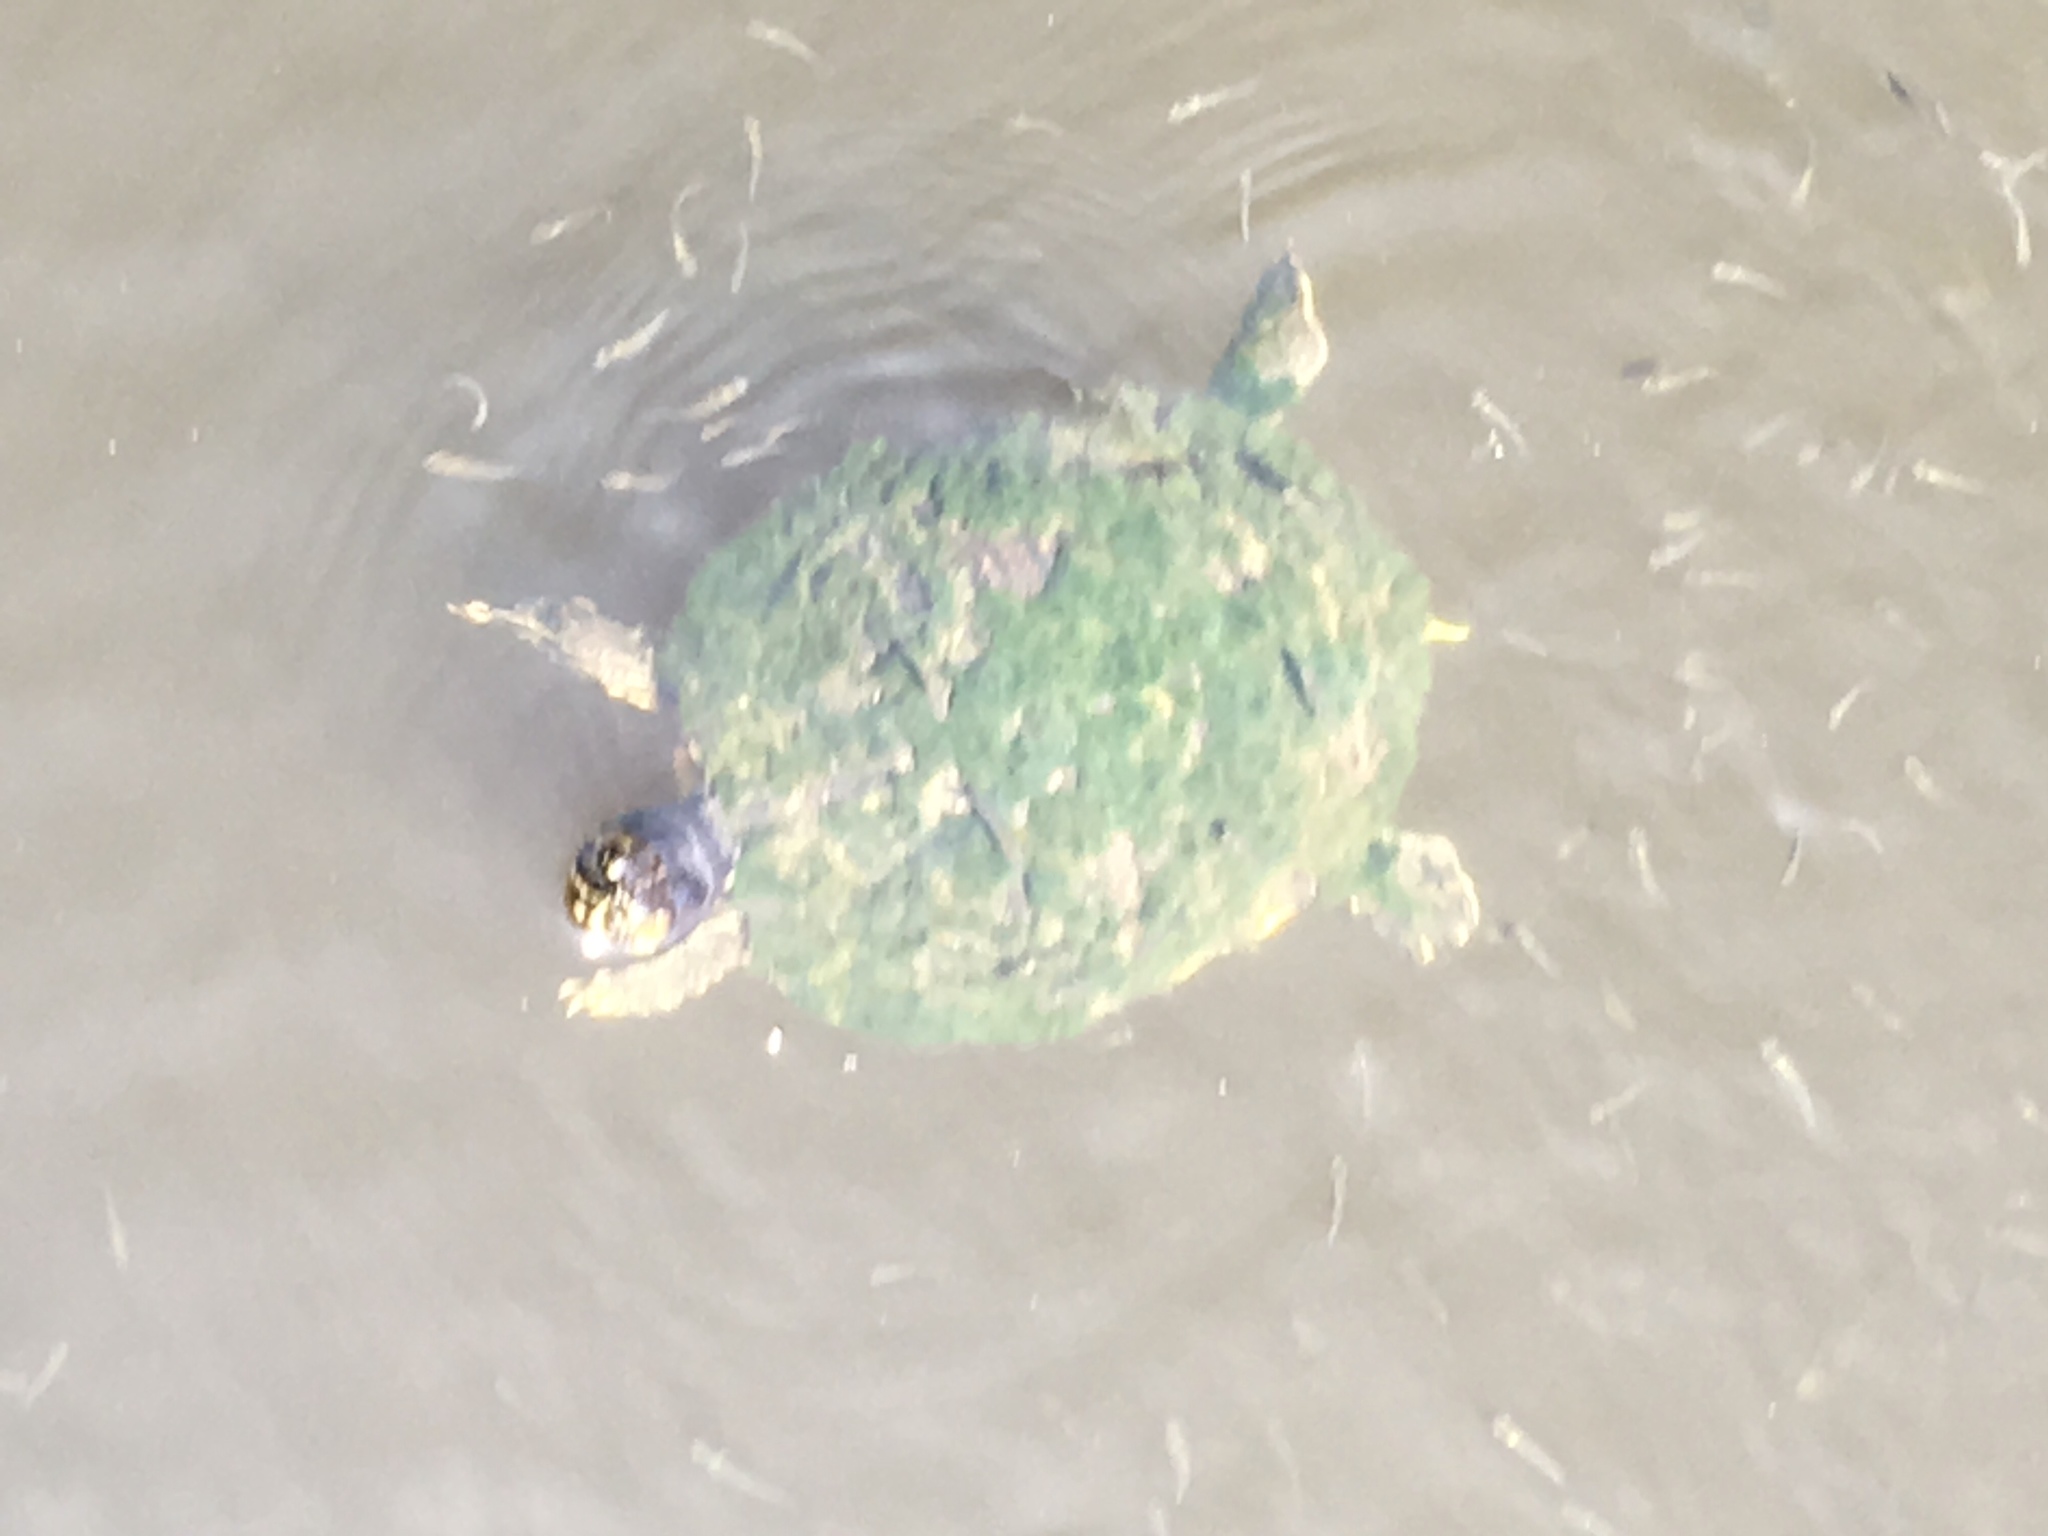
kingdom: Animalia
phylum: Chordata
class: Testudines
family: Emydidae
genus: Trachemys
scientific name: Trachemys scripta
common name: Slider
